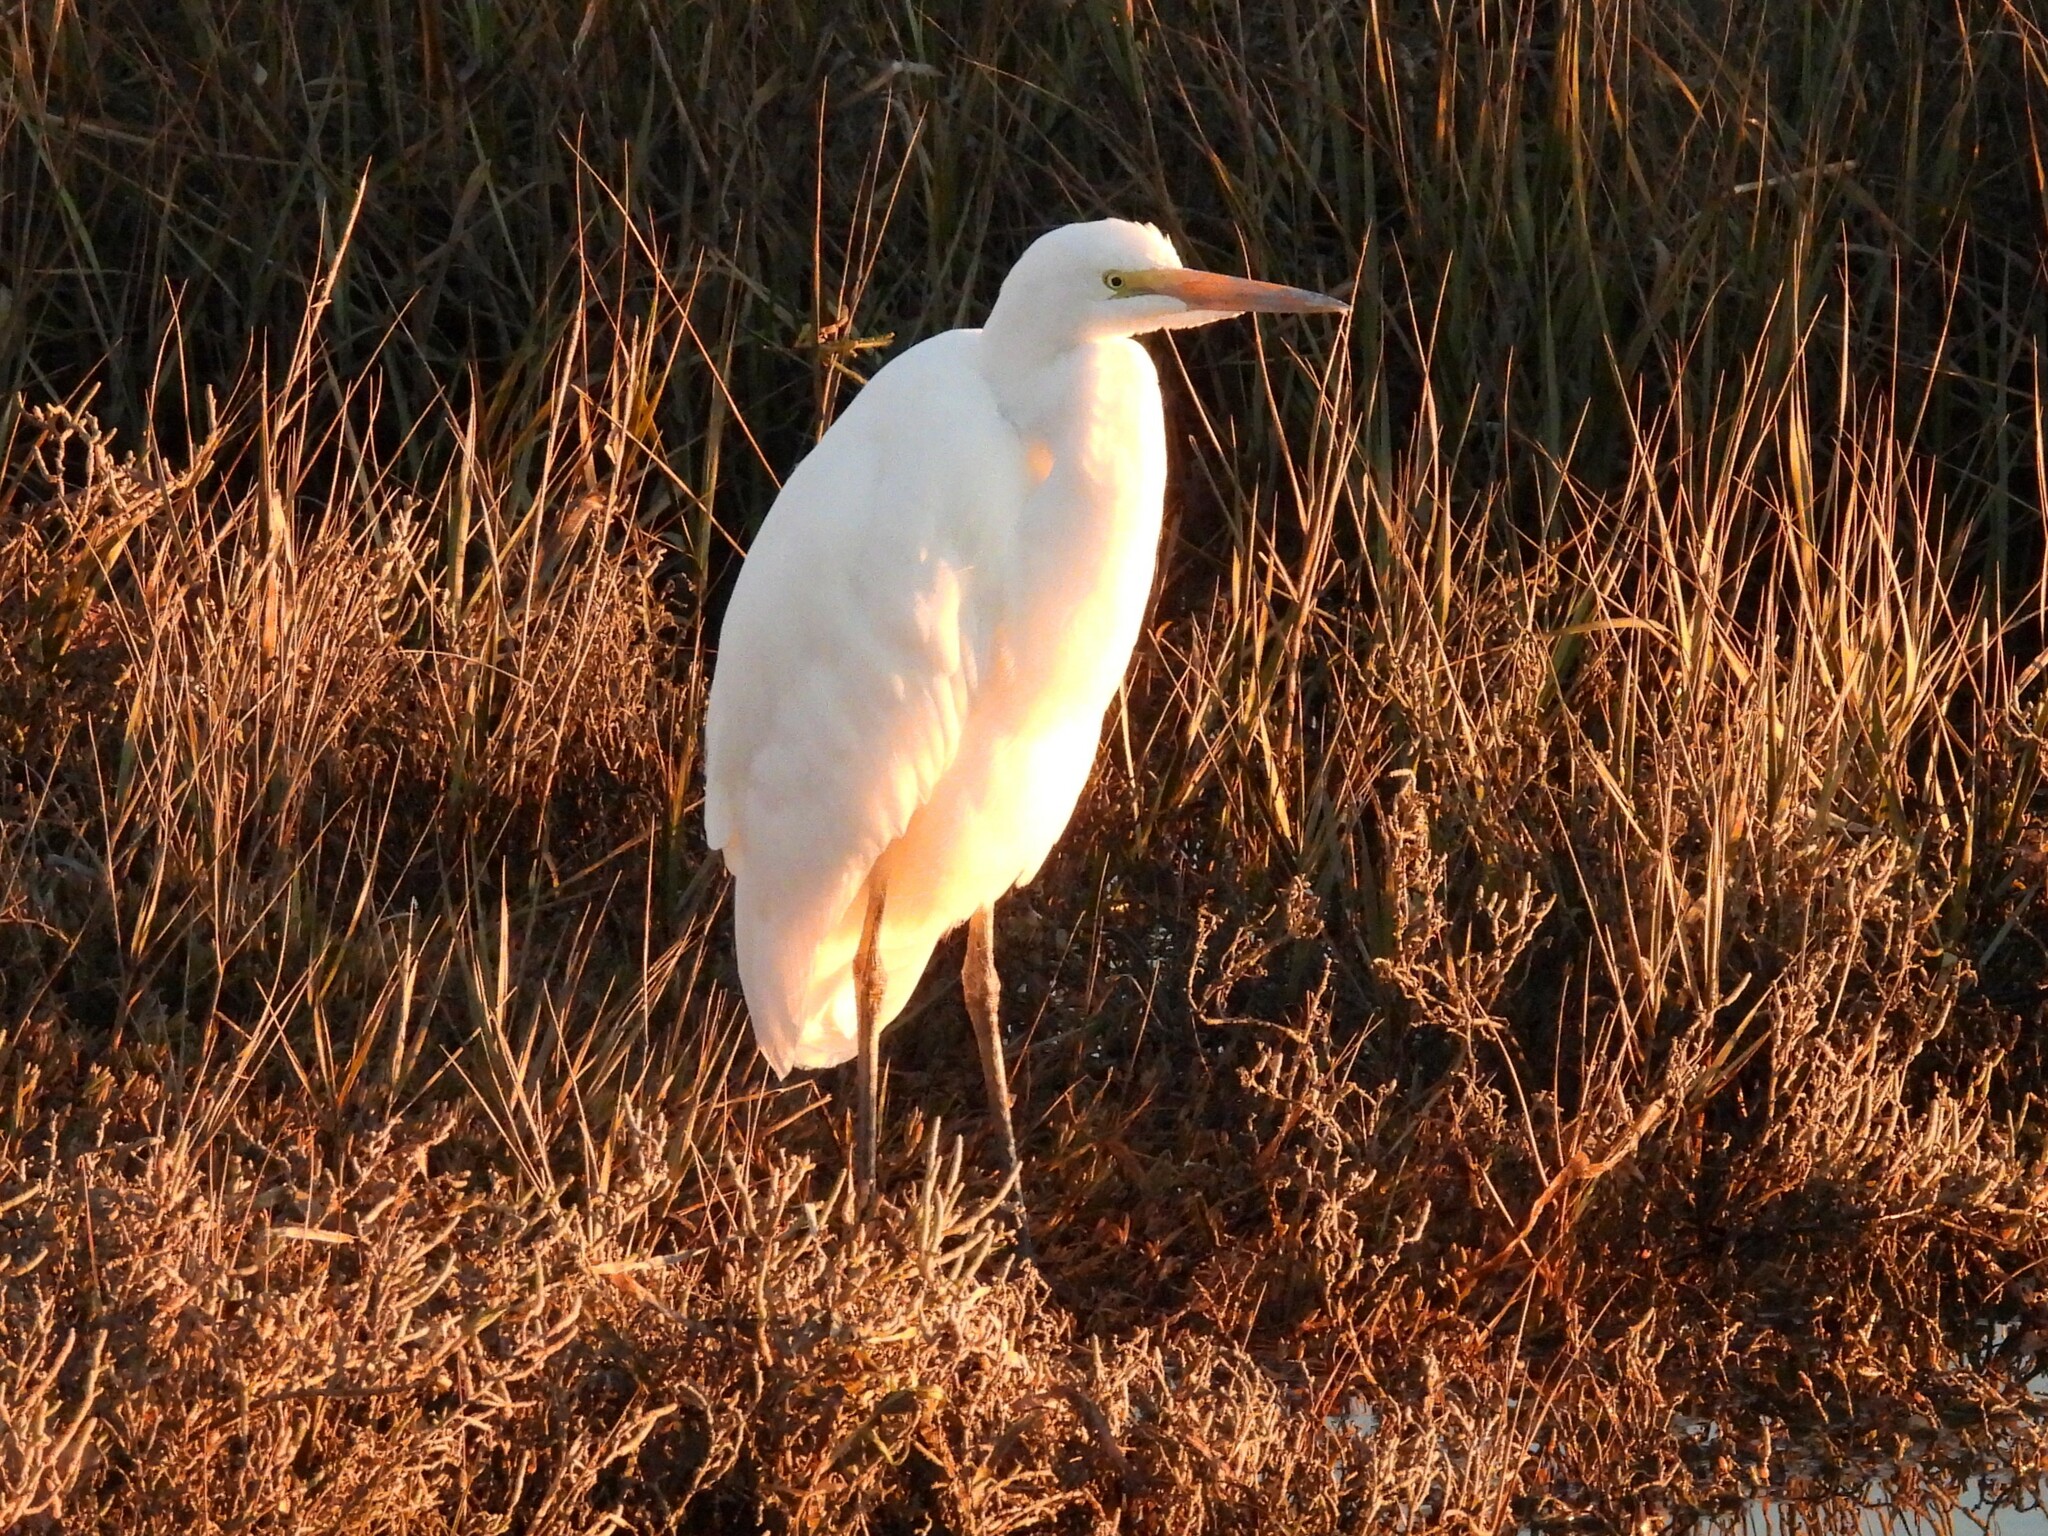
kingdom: Animalia
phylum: Chordata
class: Aves
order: Pelecaniformes
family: Ardeidae
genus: Ardea
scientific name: Ardea alba
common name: Great egret
